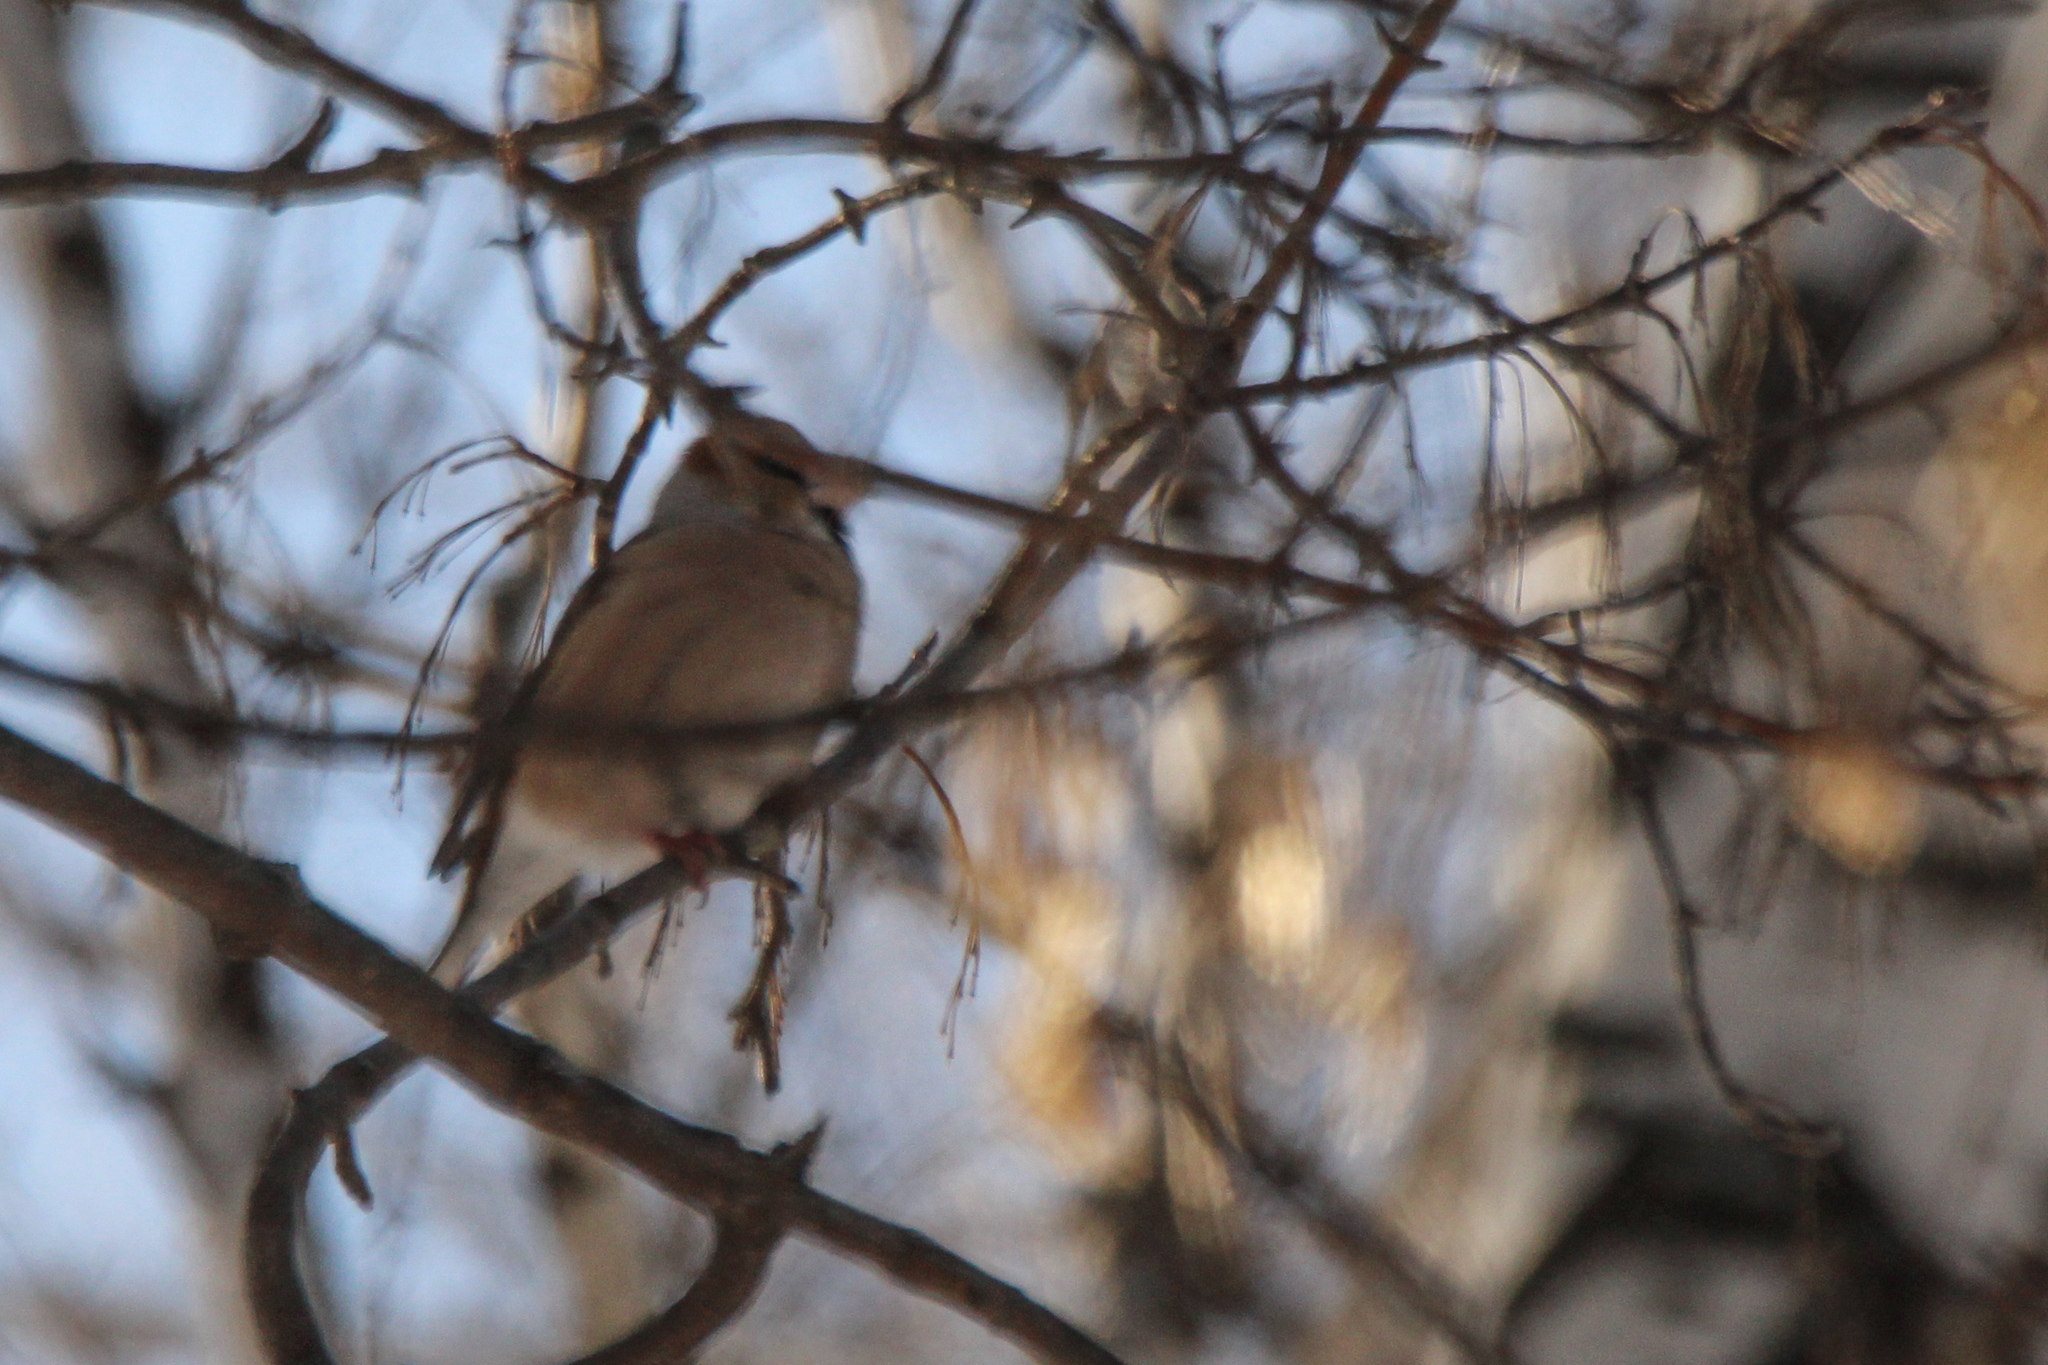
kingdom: Animalia
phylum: Chordata
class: Aves
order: Passeriformes
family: Fringillidae
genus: Coccothraustes
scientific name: Coccothraustes coccothraustes
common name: Hawfinch
